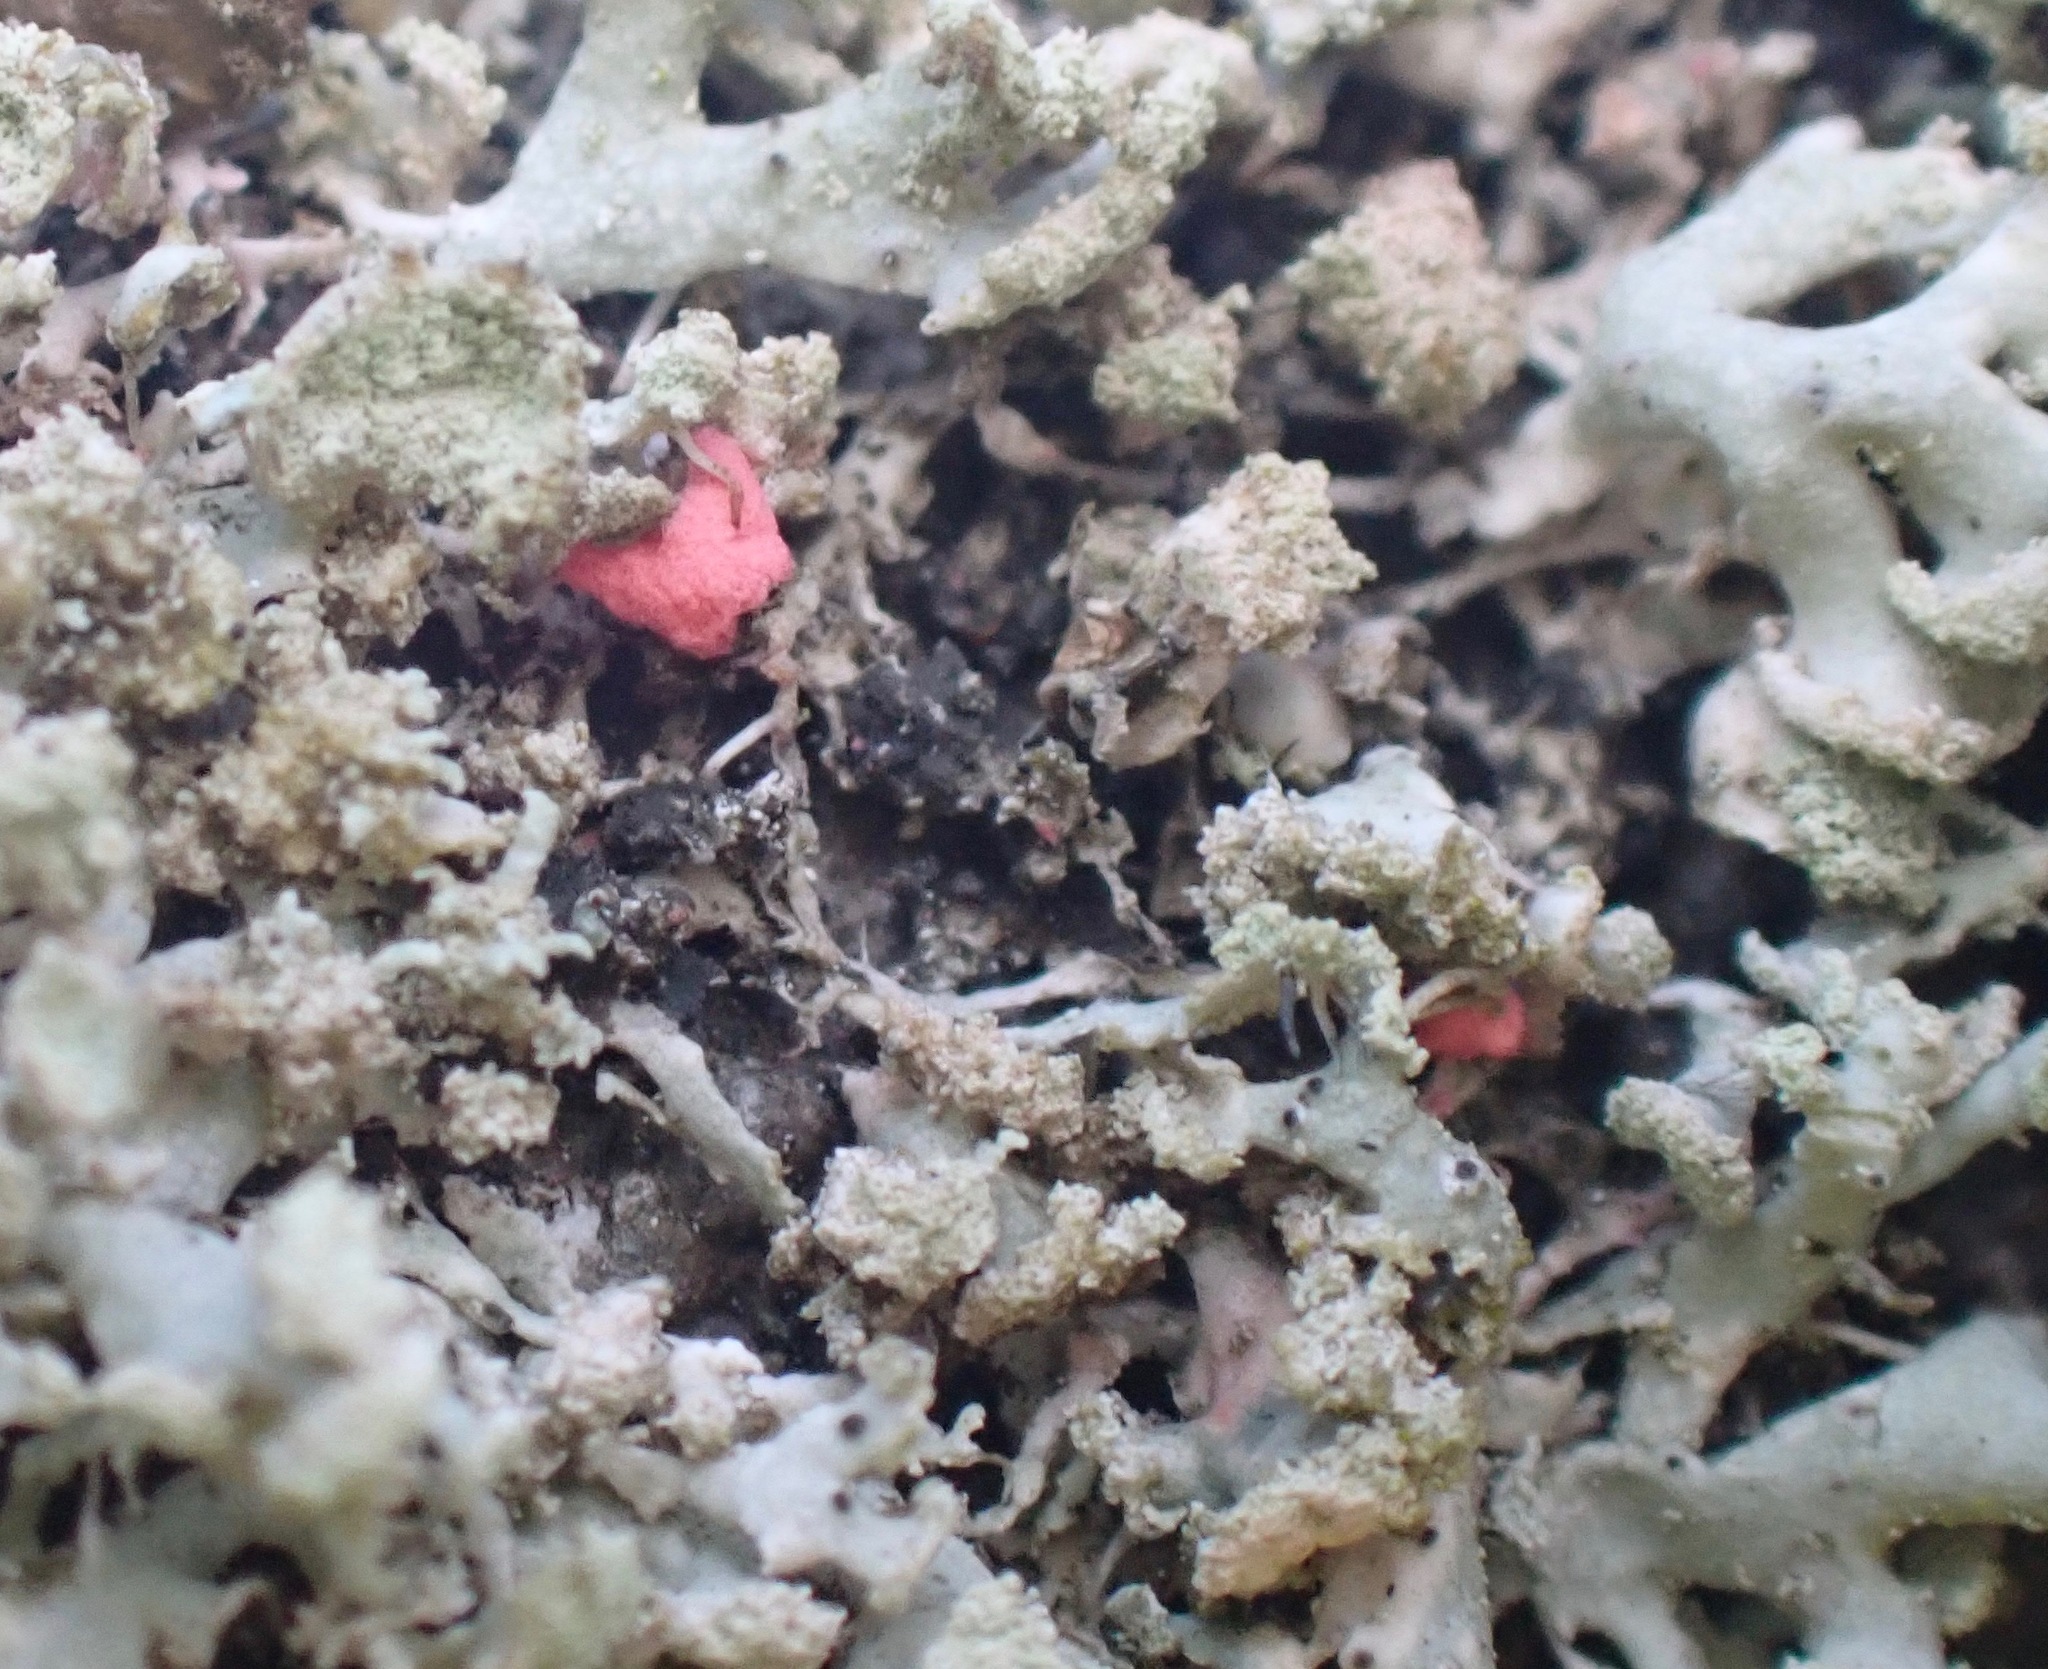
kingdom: Fungi
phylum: Ascomycota
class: Sordariomycetes
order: Hypocreales
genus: Illosporiopsis
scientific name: Illosporiopsis christiansenii
